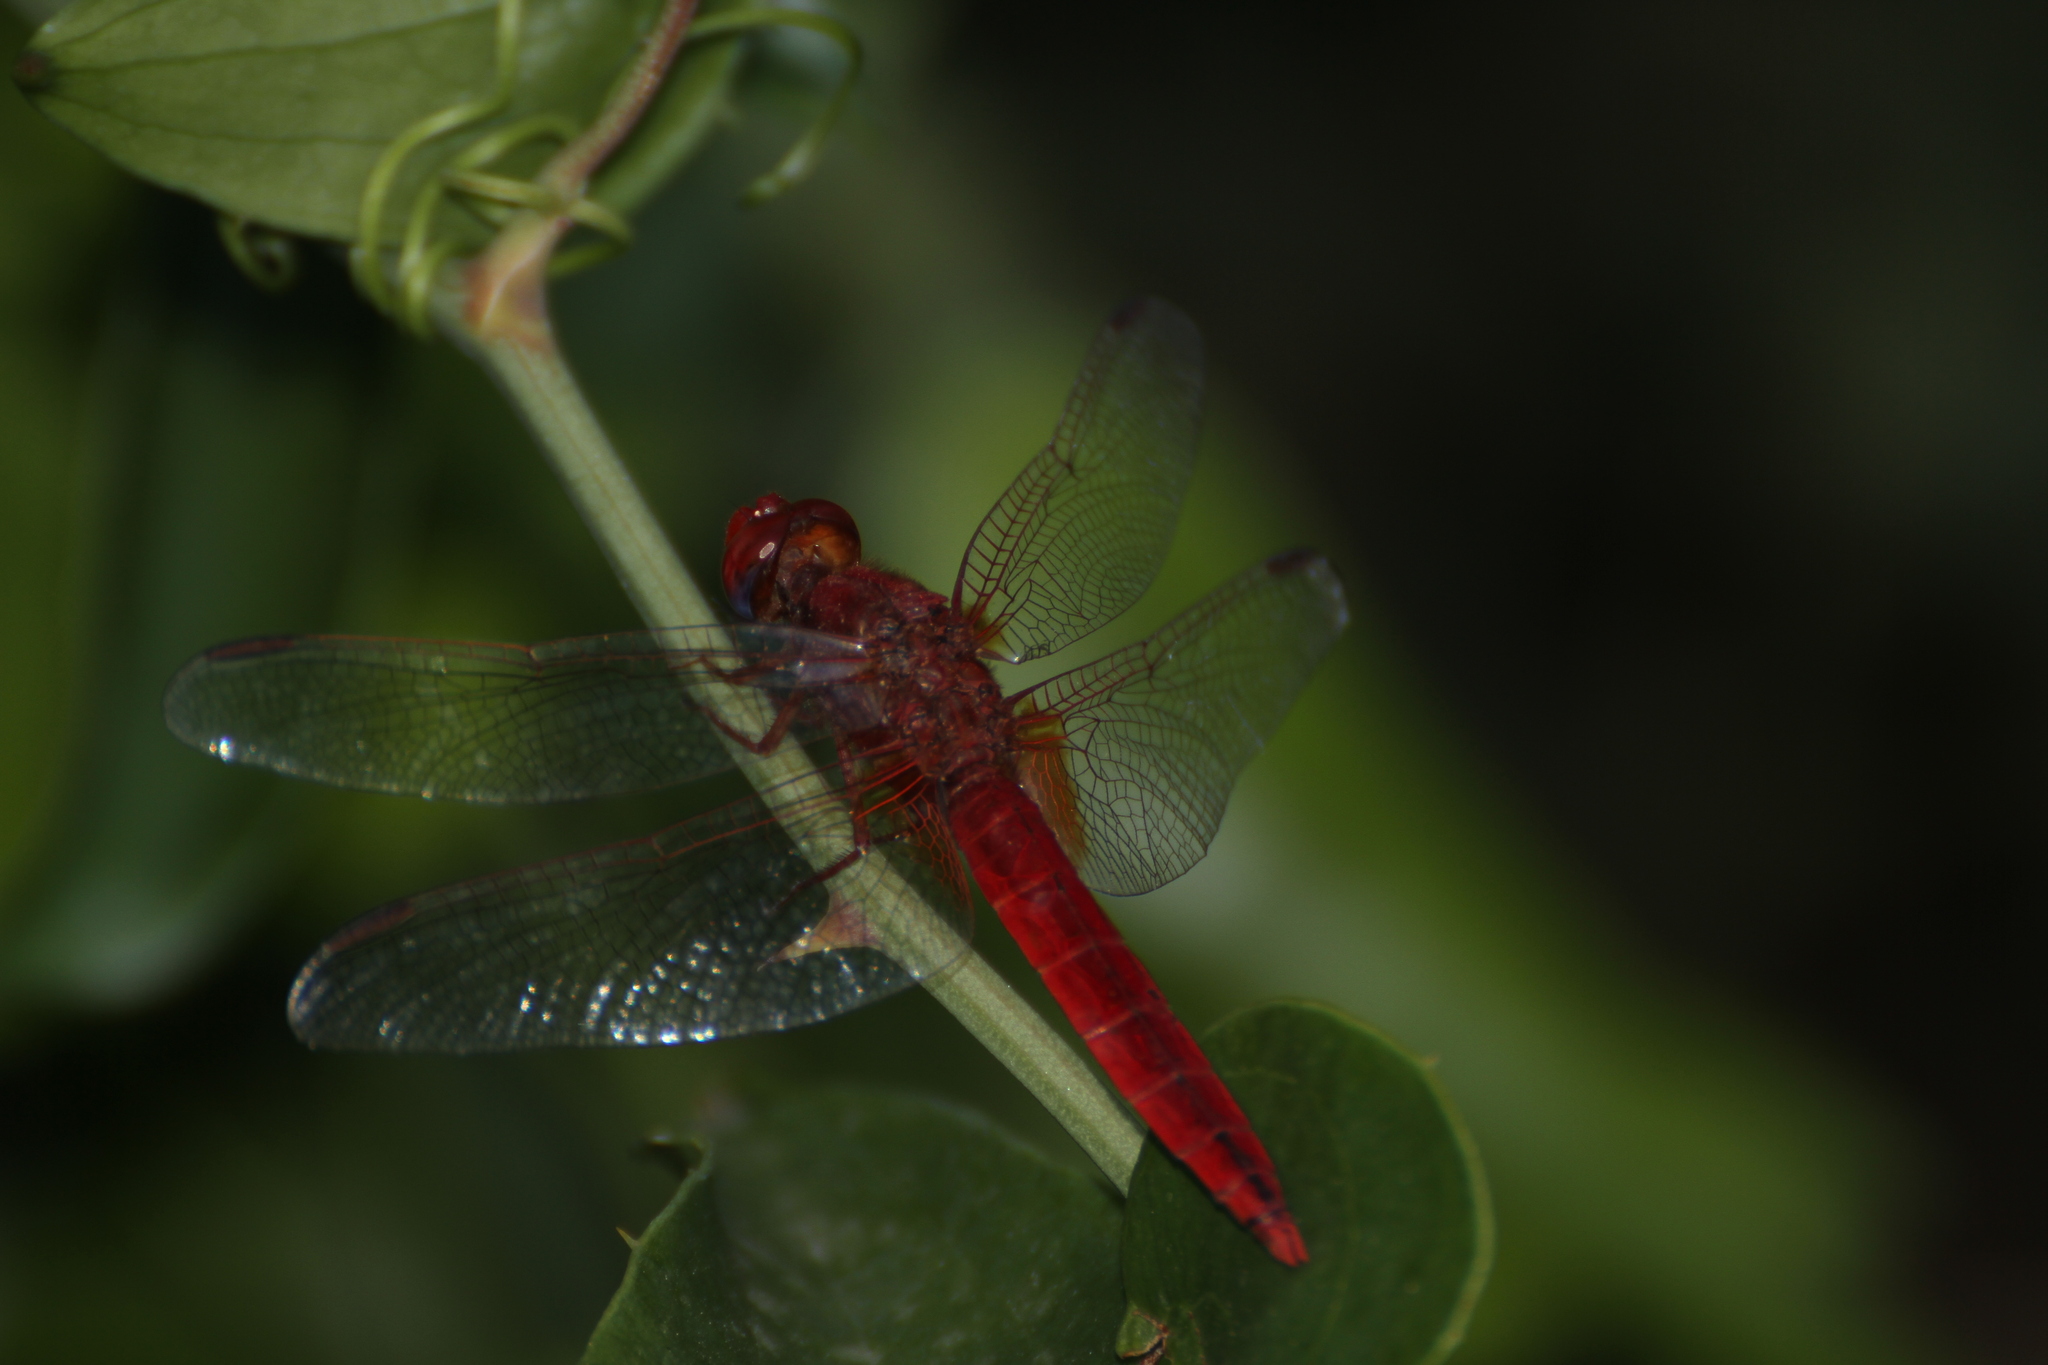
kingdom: Animalia
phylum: Arthropoda
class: Insecta
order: Odonata
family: Libellulidae
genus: Crocothemis
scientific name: Crocothemis erythraea
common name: Scarlet dragonfly
